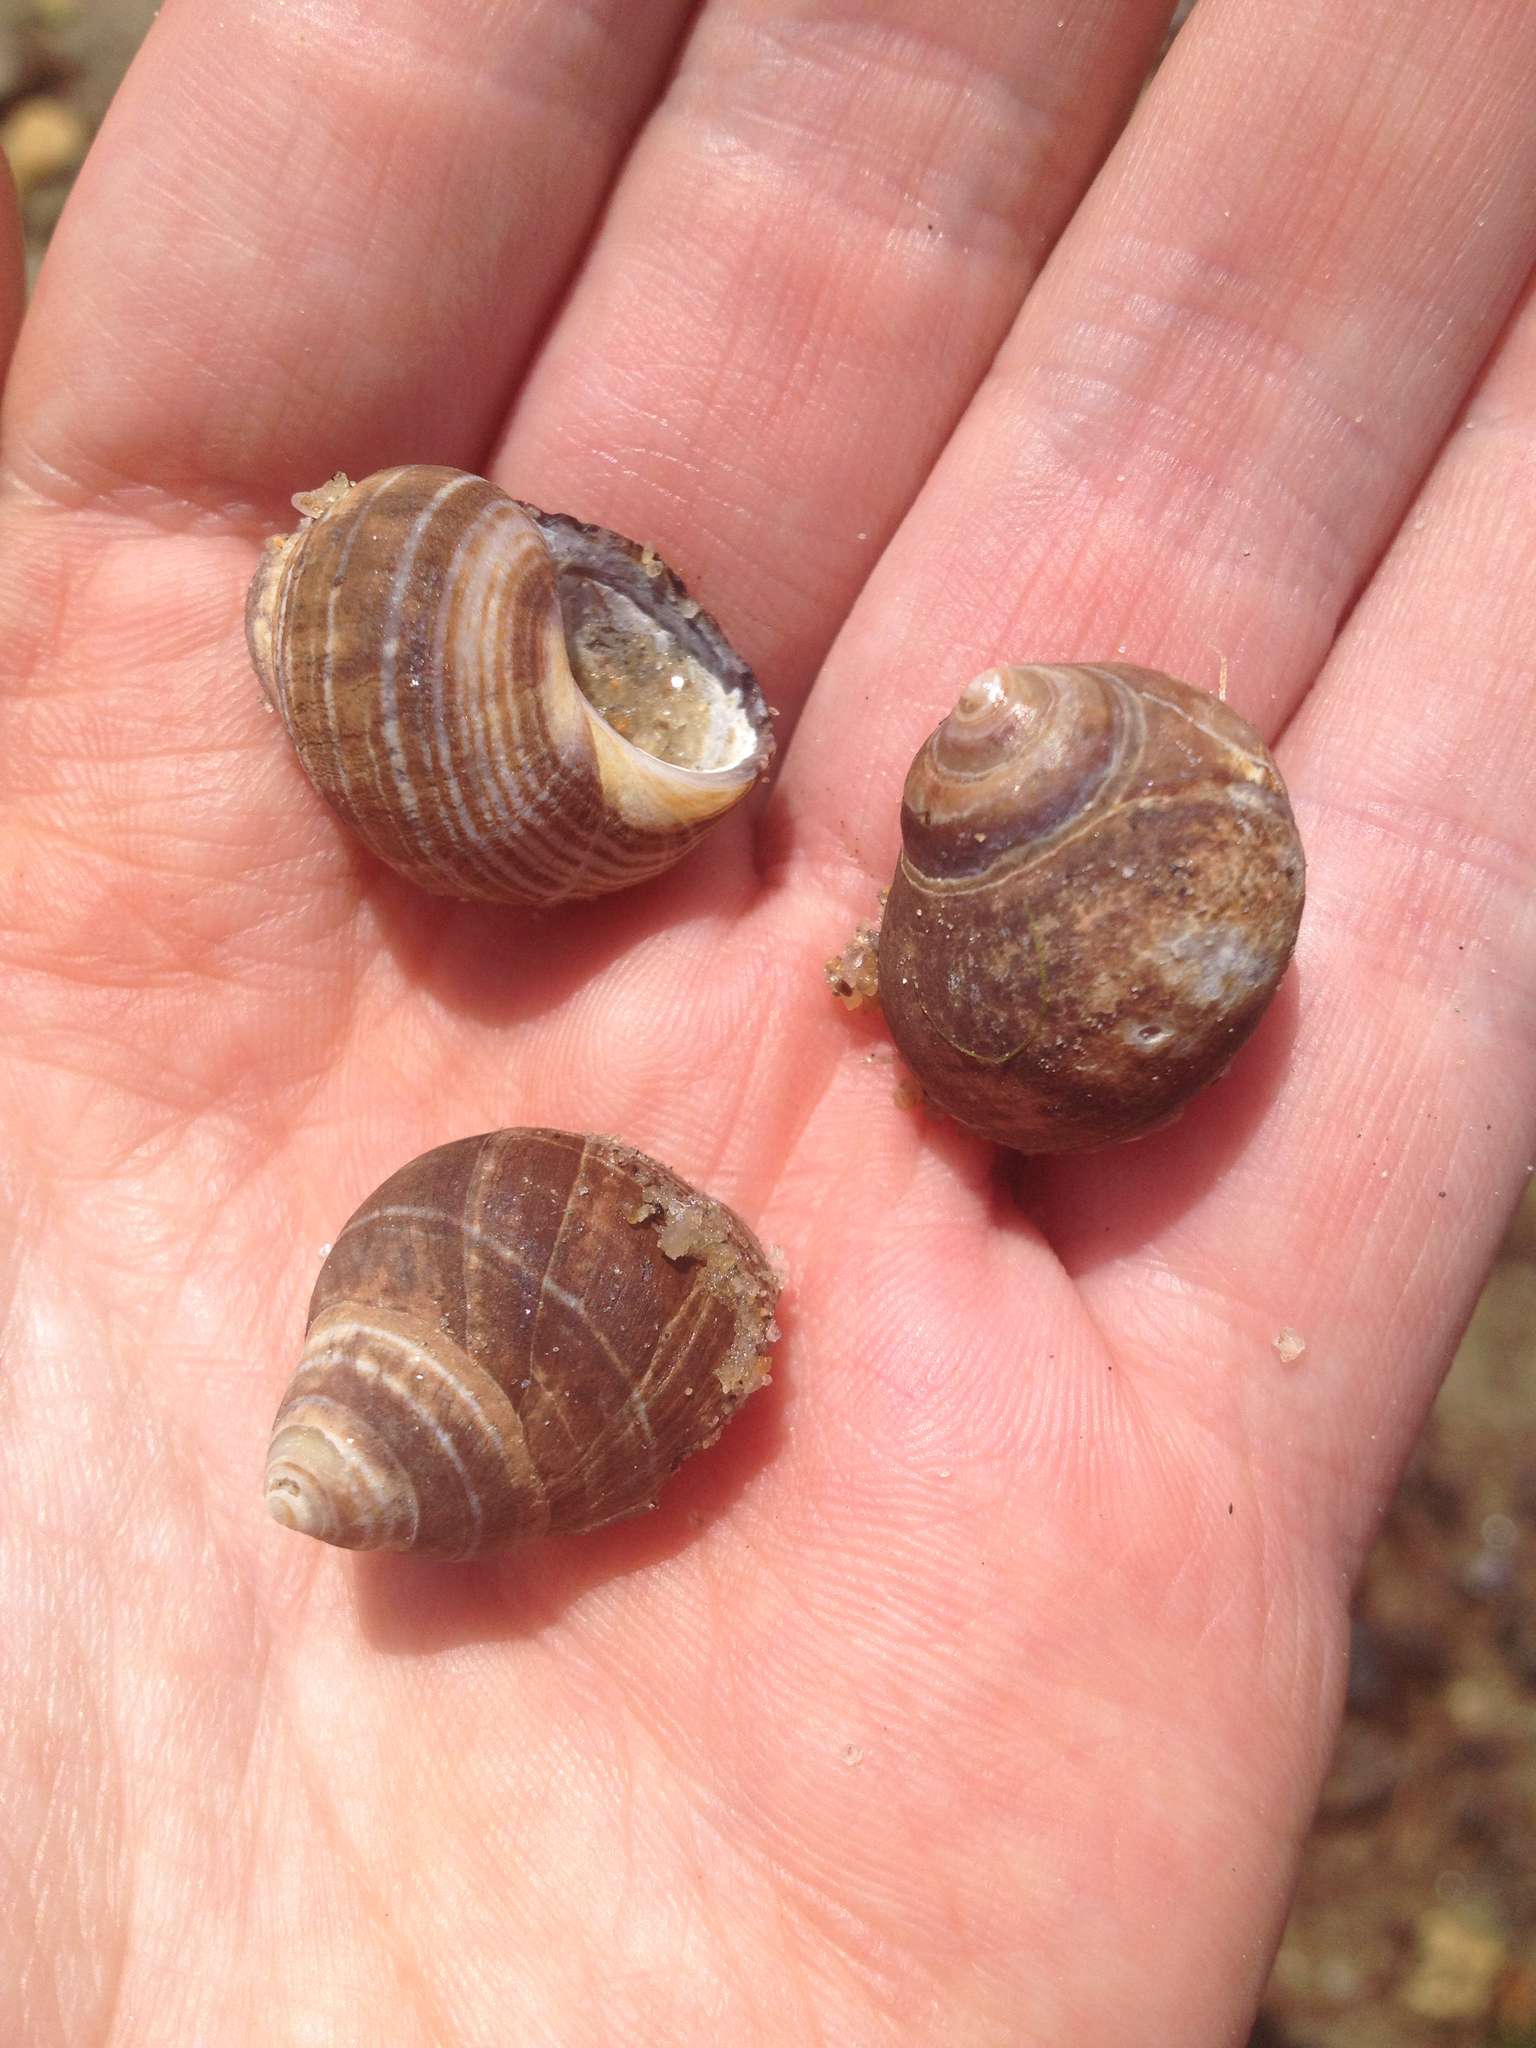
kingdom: Animalia
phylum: Mollusca
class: Gastropoda
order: Littorinimorpha
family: Littorinidae
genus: Littorina
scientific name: Littorina littorea
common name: Common periwinkle
